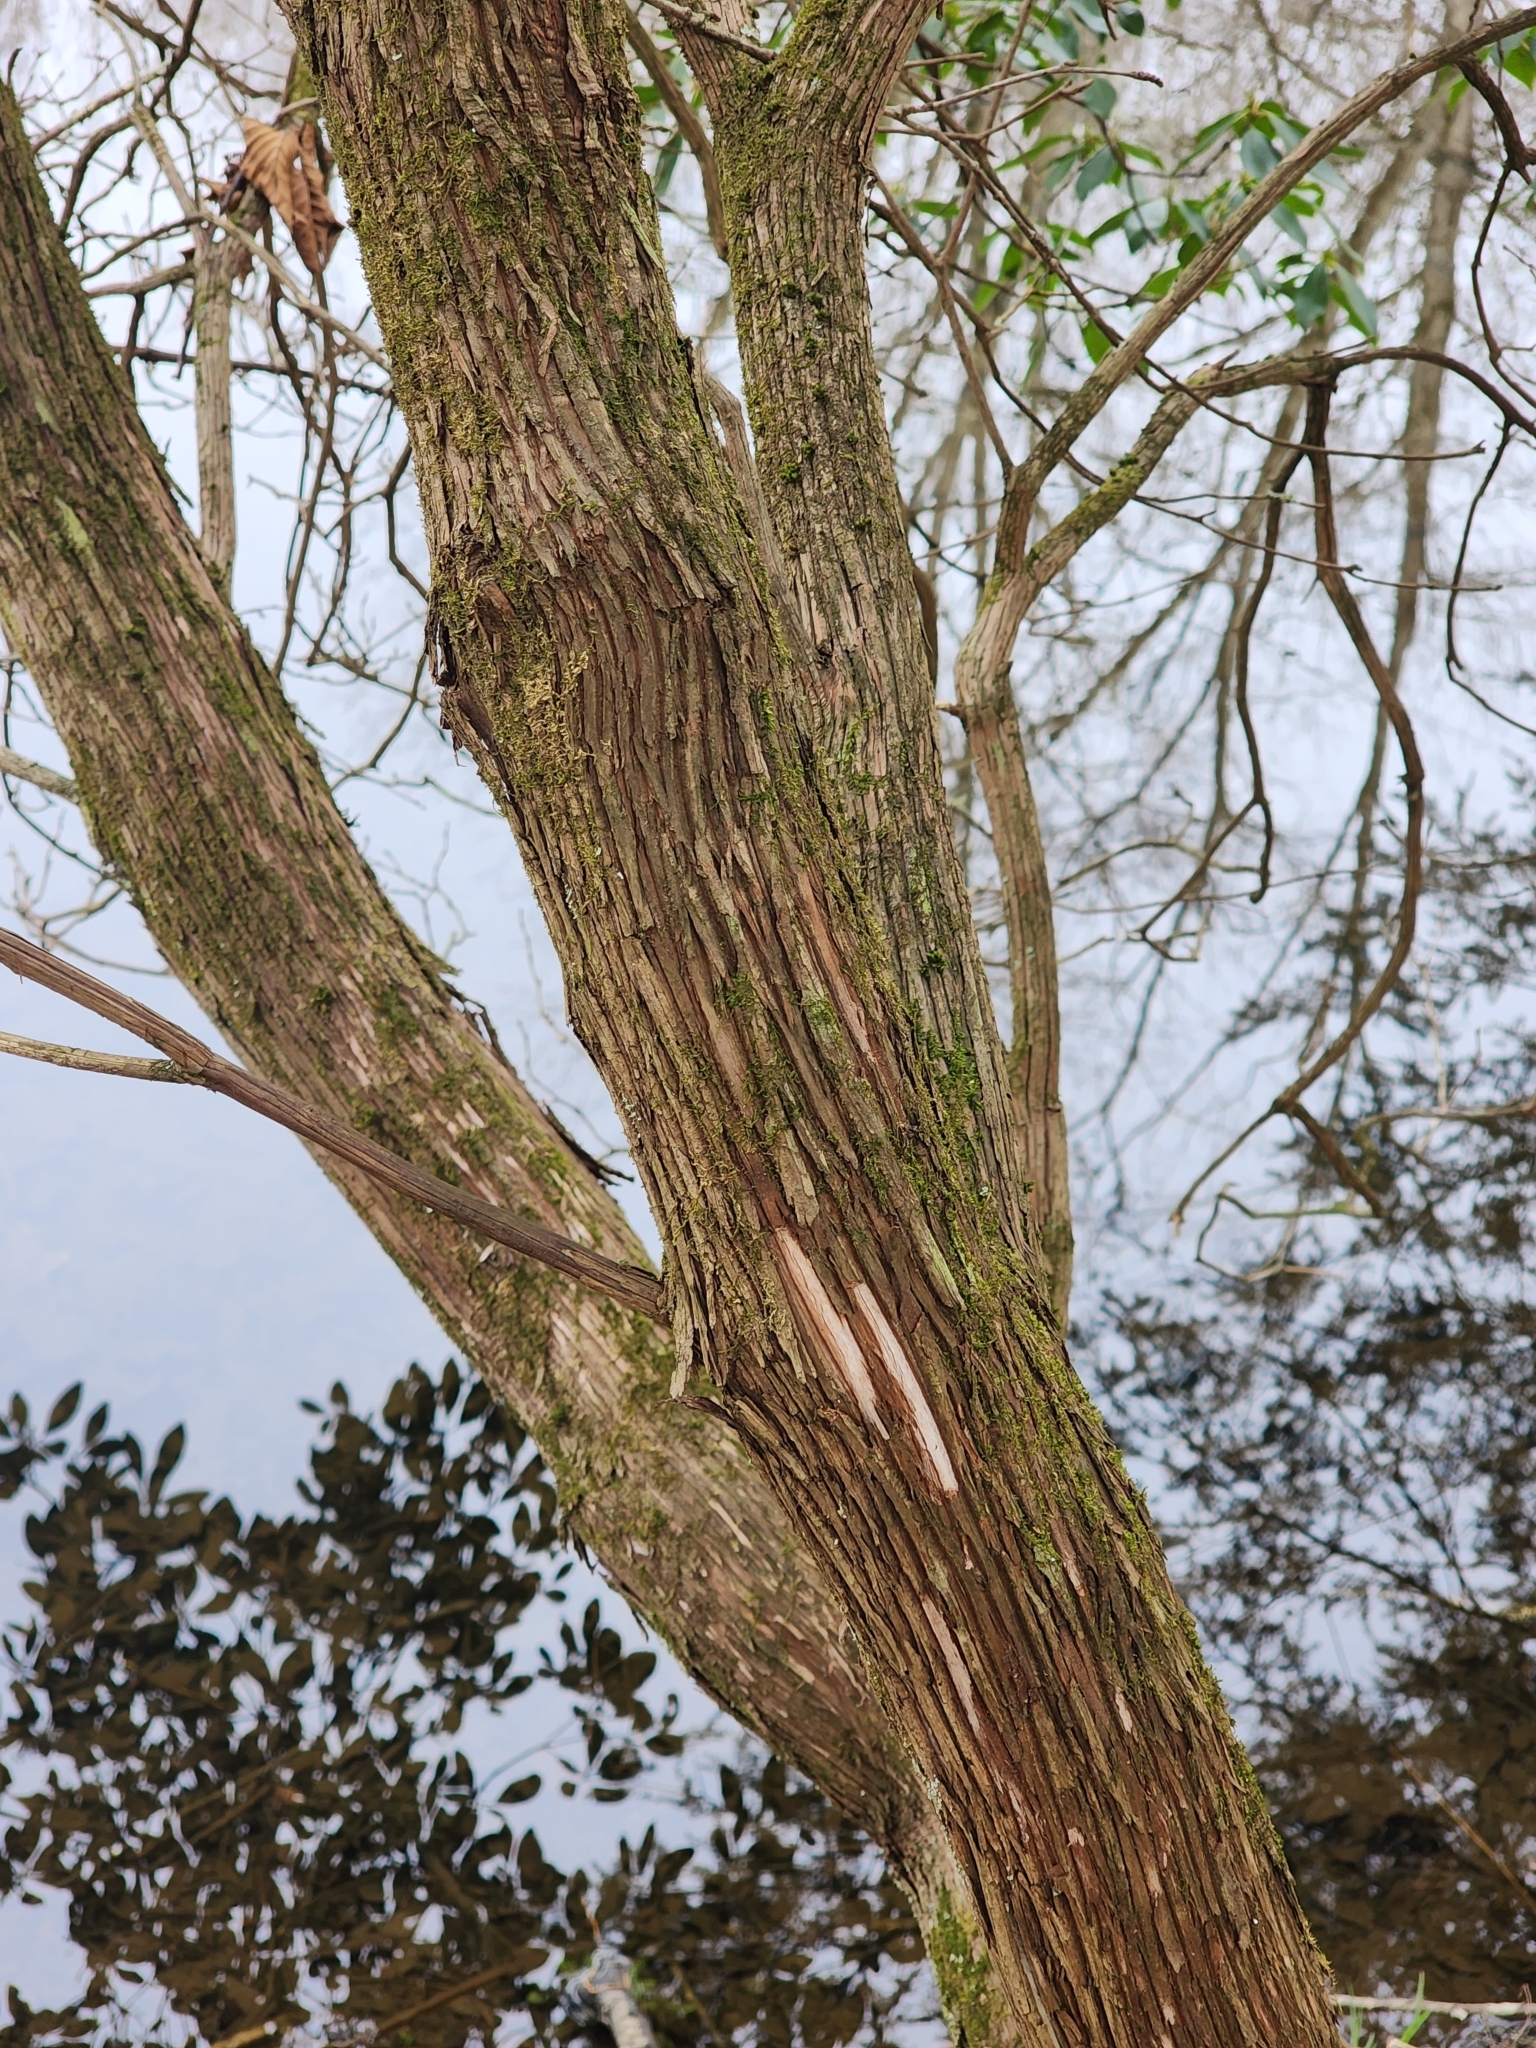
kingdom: Plantae
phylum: Tracheophyta
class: Magnoliopsida
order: Ericales
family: Ericaceae
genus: Kalmia
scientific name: Kalmia latifolia
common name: Mountain-laurel
